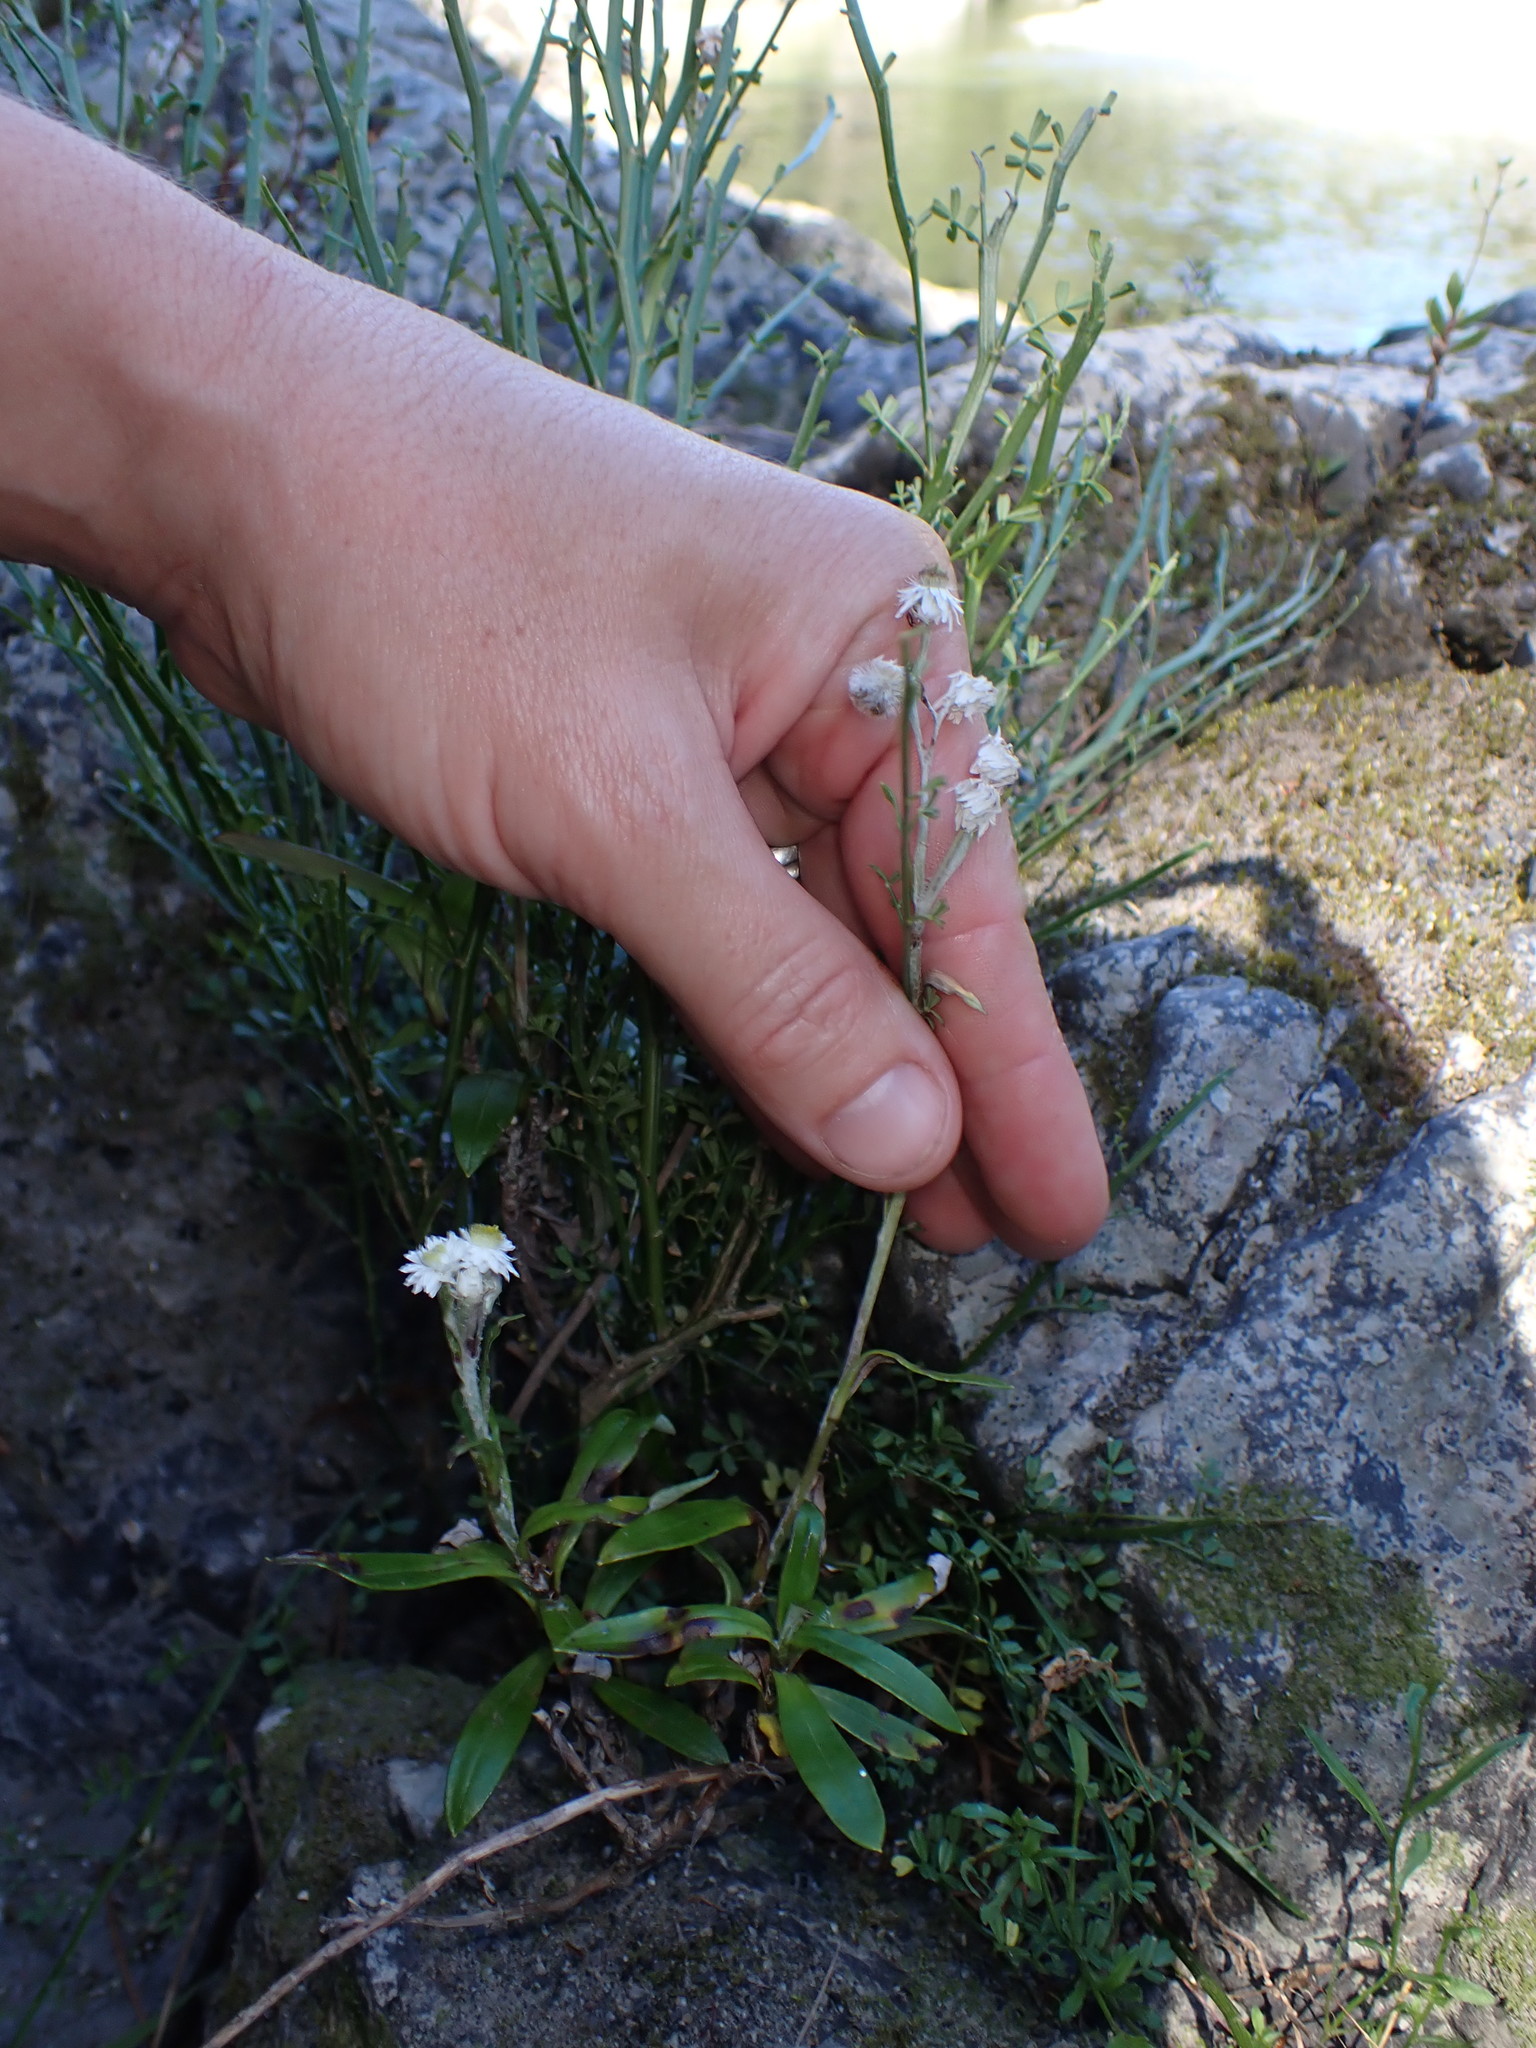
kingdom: Plantae
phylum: Tracheophyta
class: Magnoliopsida
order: Asterales
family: Asteraceae
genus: Anaphalioides
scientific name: Anaphalioides trinervis
